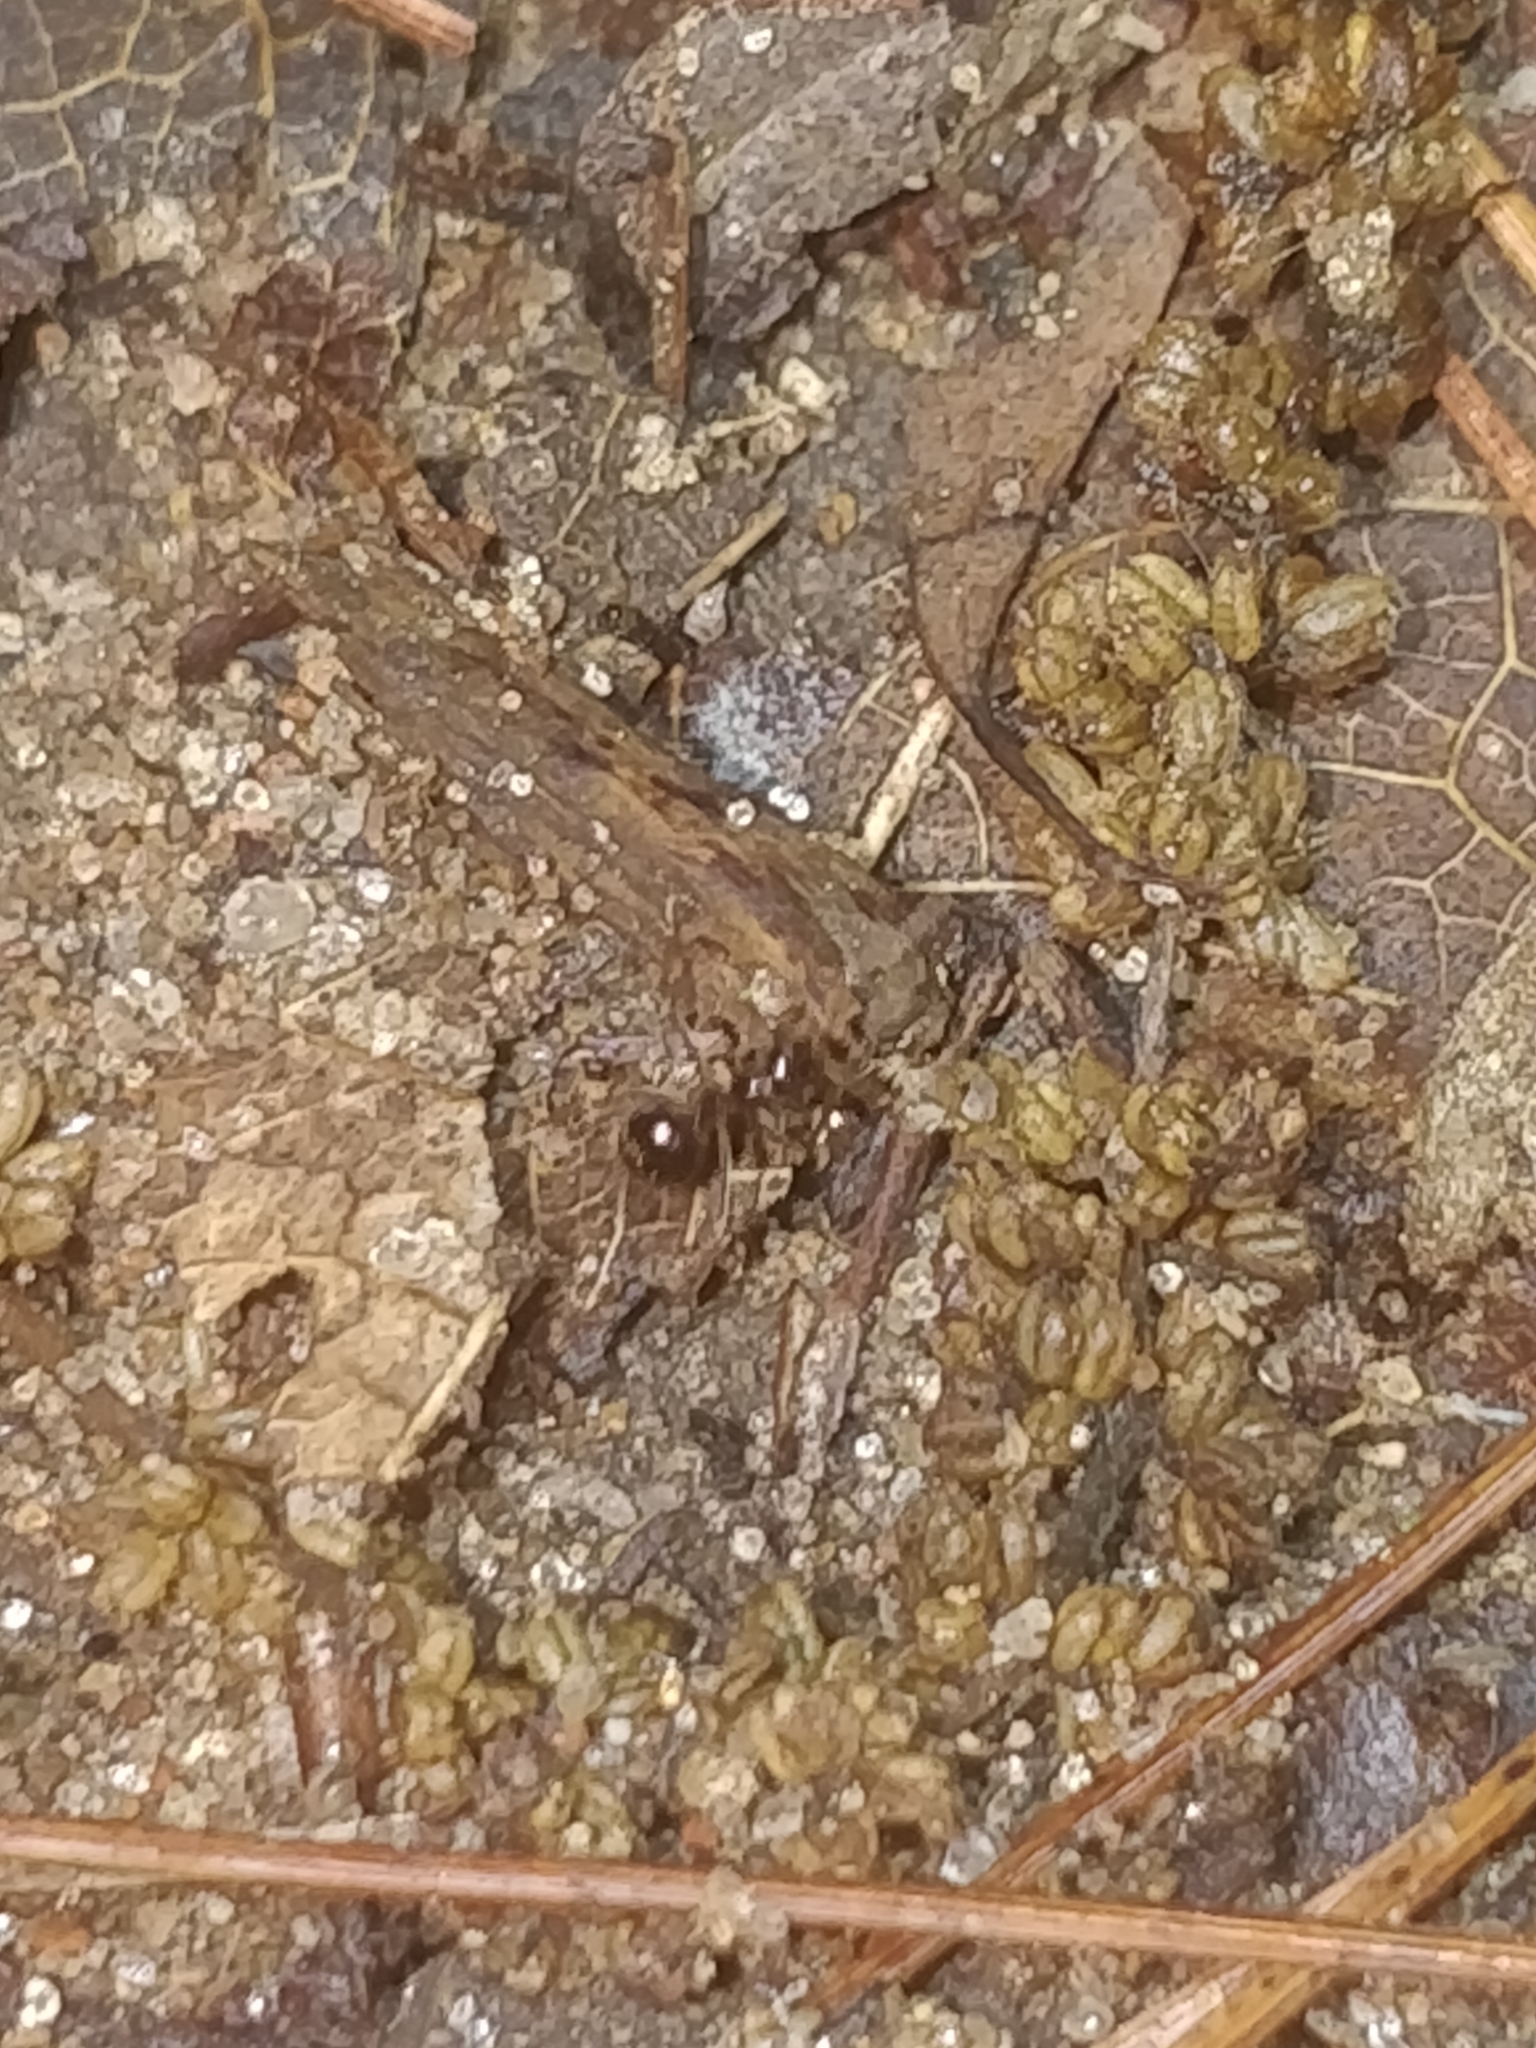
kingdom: Animalia
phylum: Arthropoda
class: Insecta
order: Hymenoptera
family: Formicidae
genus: Prenolepis
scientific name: Prenolepis imparis
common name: Small honey ant
